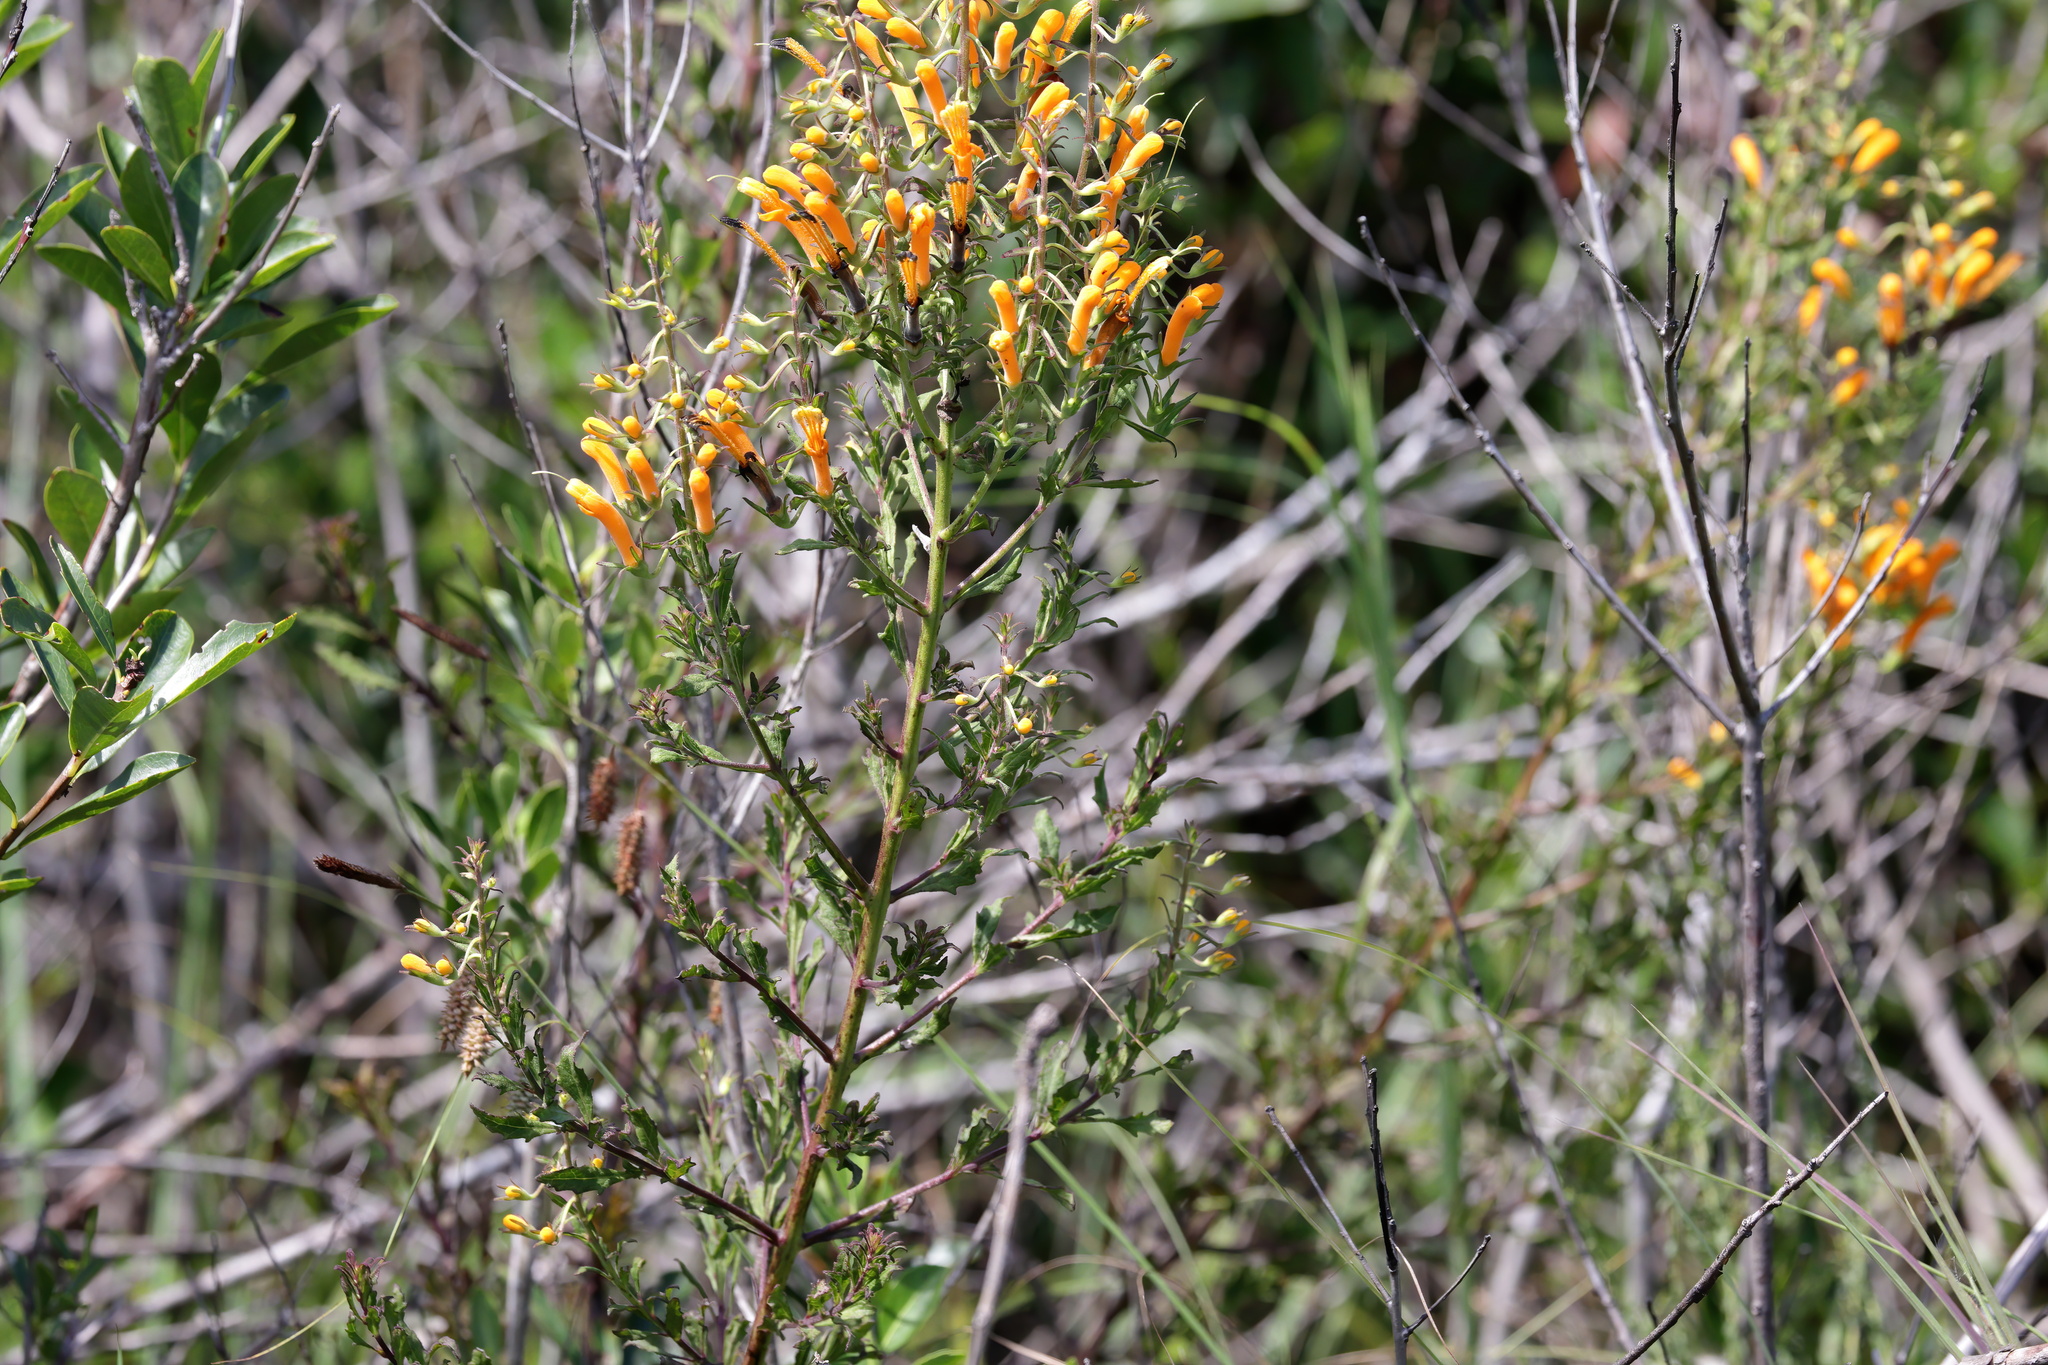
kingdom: Plantae
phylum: Tracheophyta
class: Magnoliopsida
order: Lamiales
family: Orobanchaceae
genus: Macranthera
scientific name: Macranthera flammea
